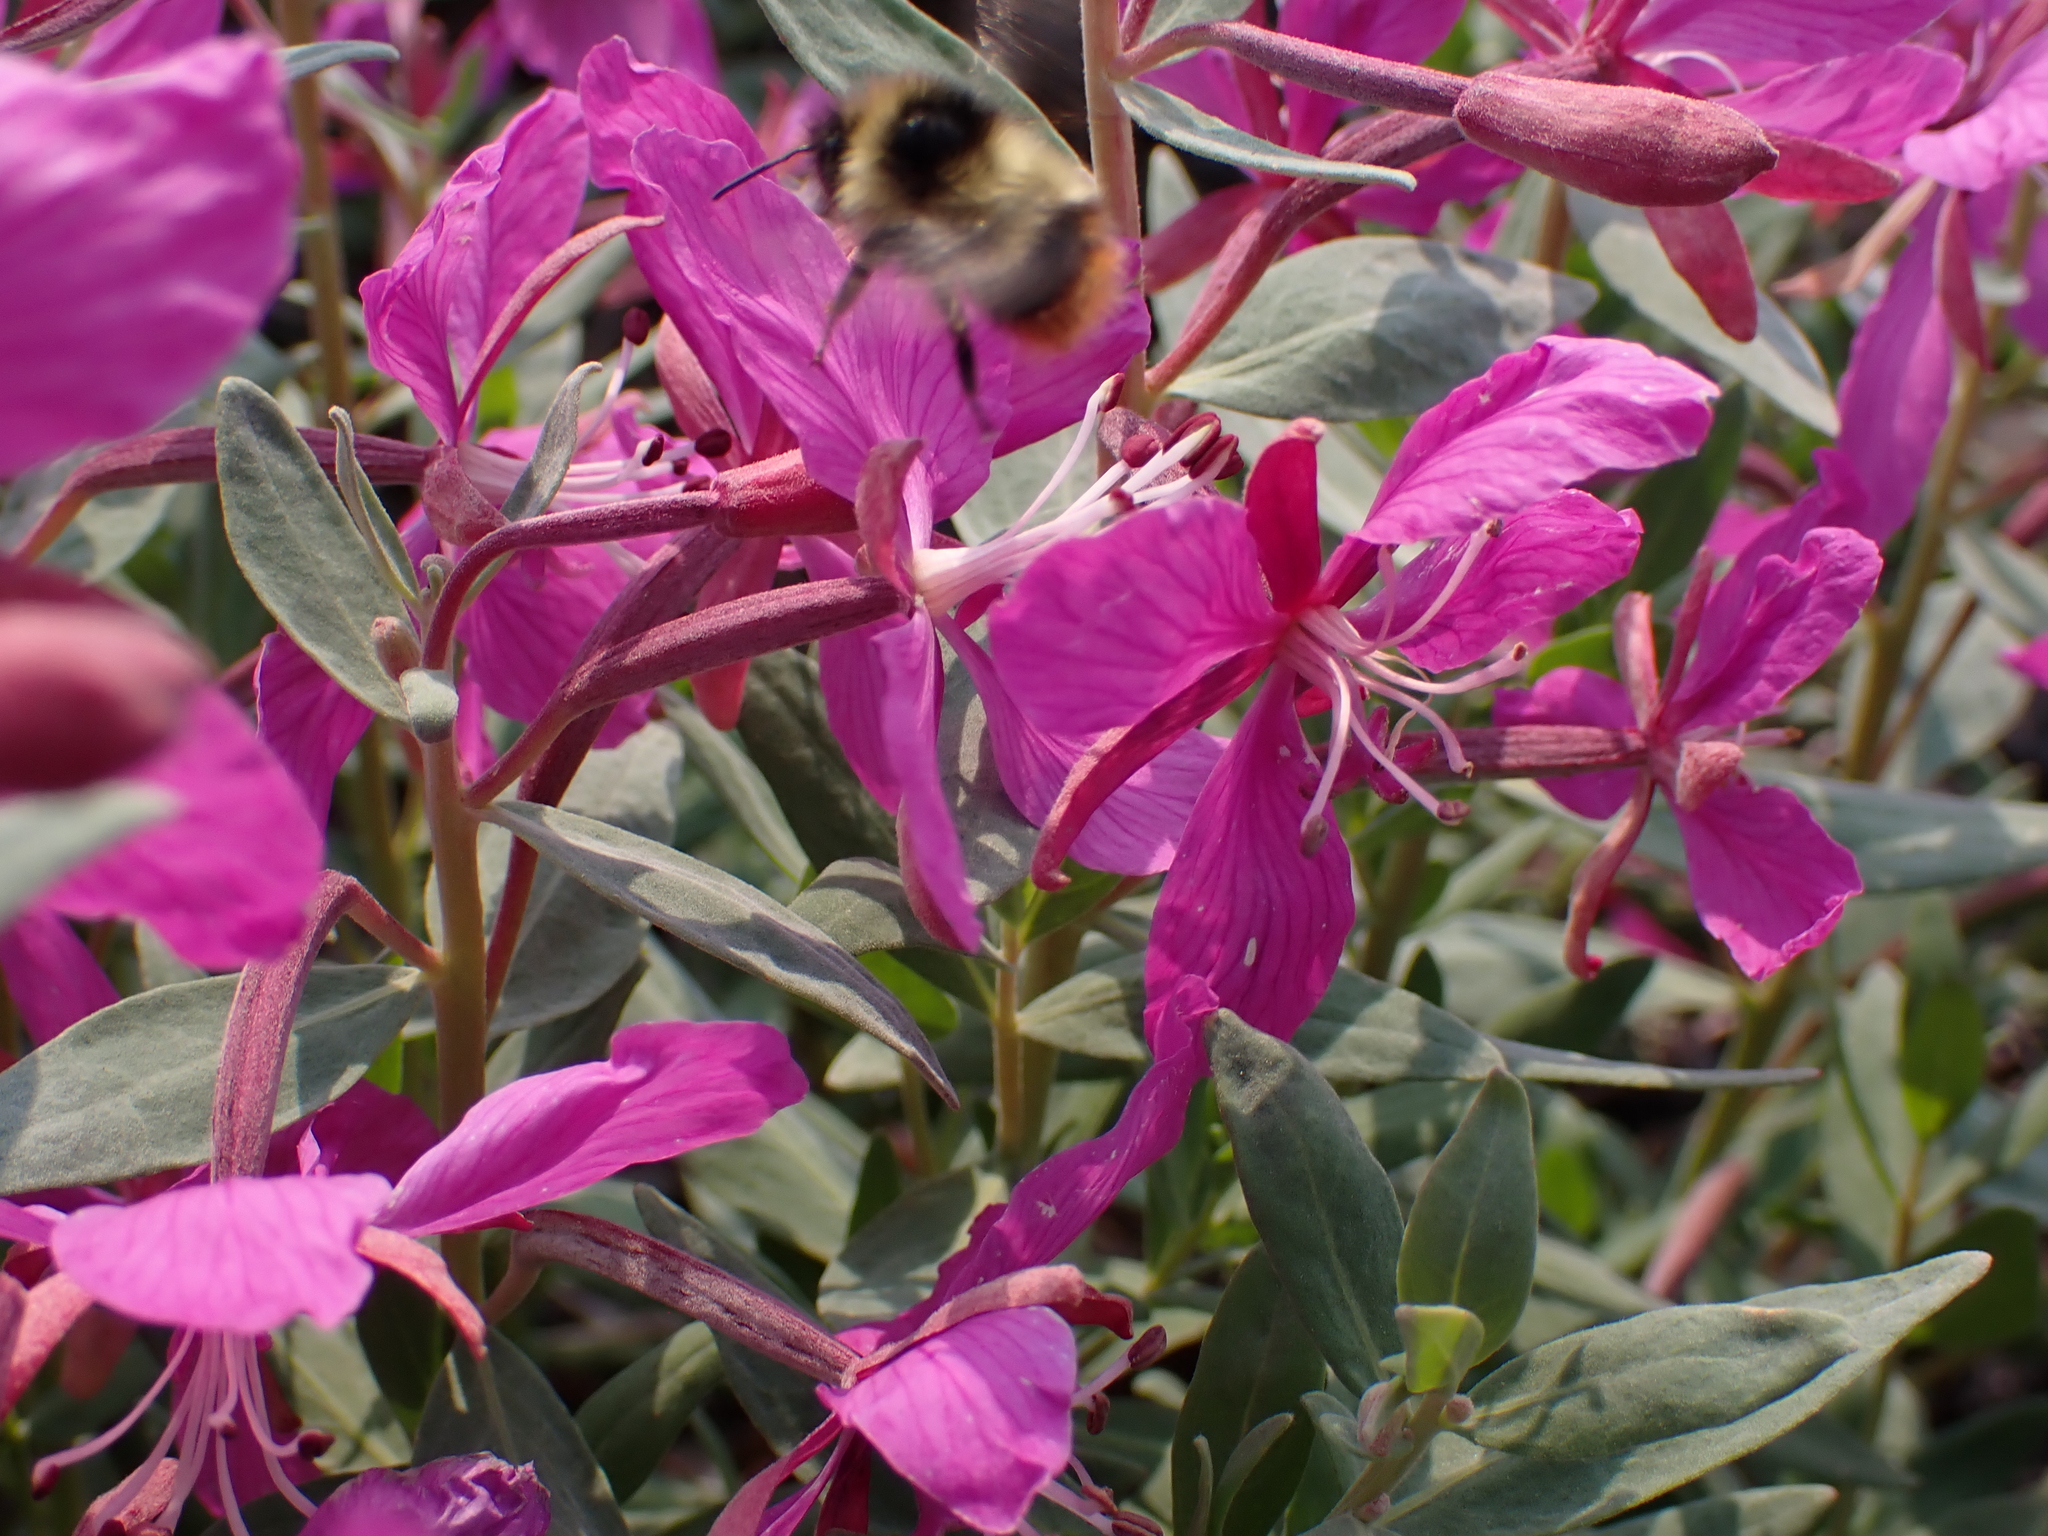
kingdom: Animalia
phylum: Arthropoda
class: Insecta
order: Hymenoptera
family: Apidae
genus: Bombus
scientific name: Bombus frigidus
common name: Frigid bumble bee
